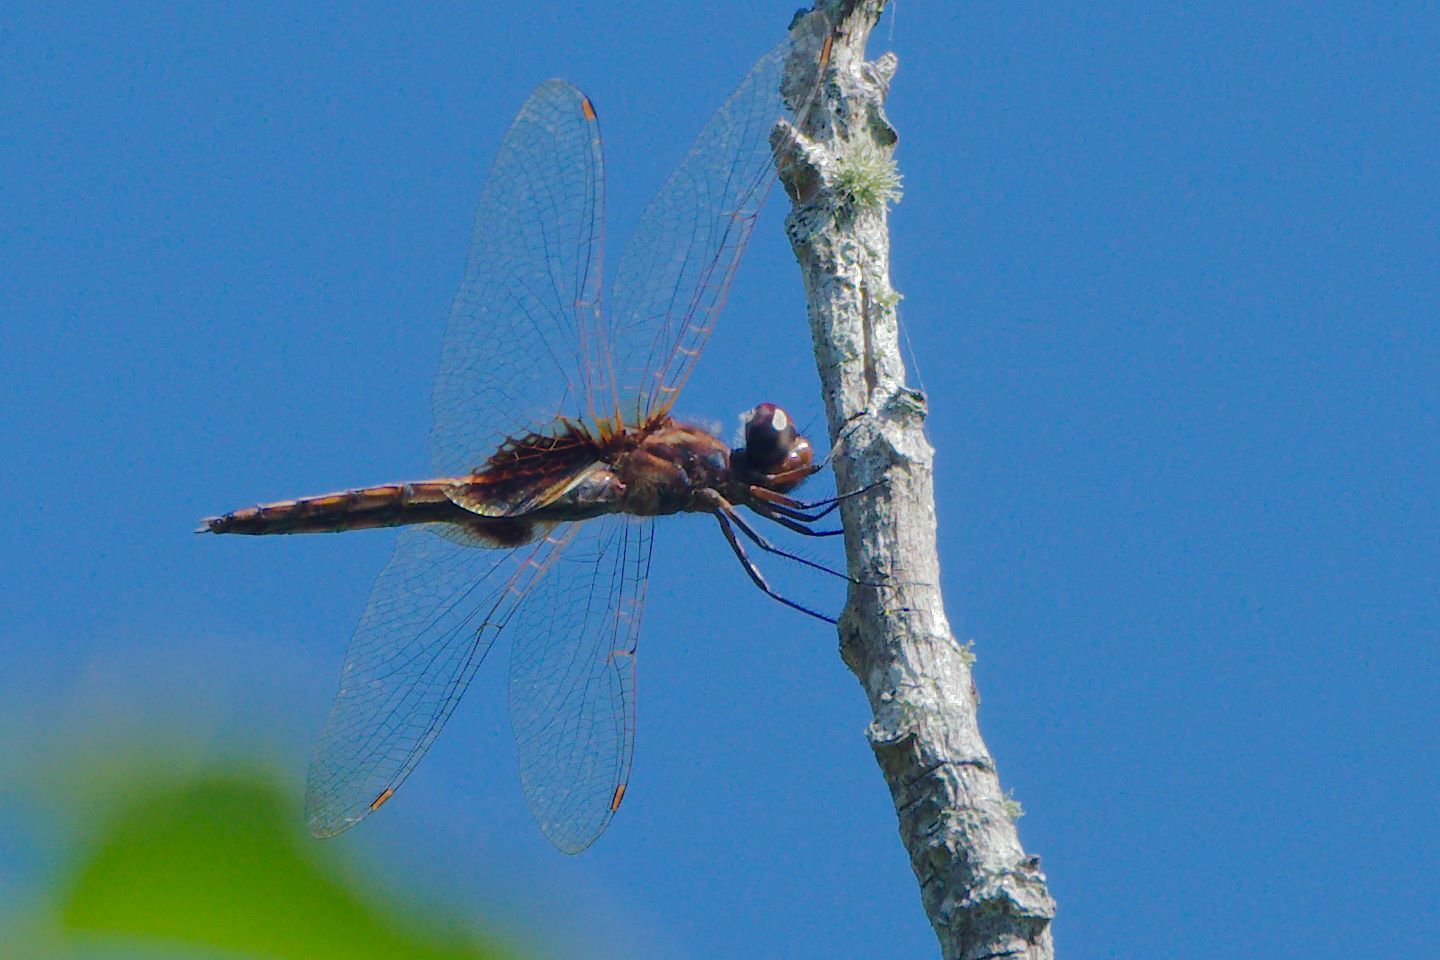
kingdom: Animalia
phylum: Arthropoda
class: Insecta
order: Odonata
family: Libellulidae
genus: Miathyria
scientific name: Miathyria marcella
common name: Hyacinth glider
